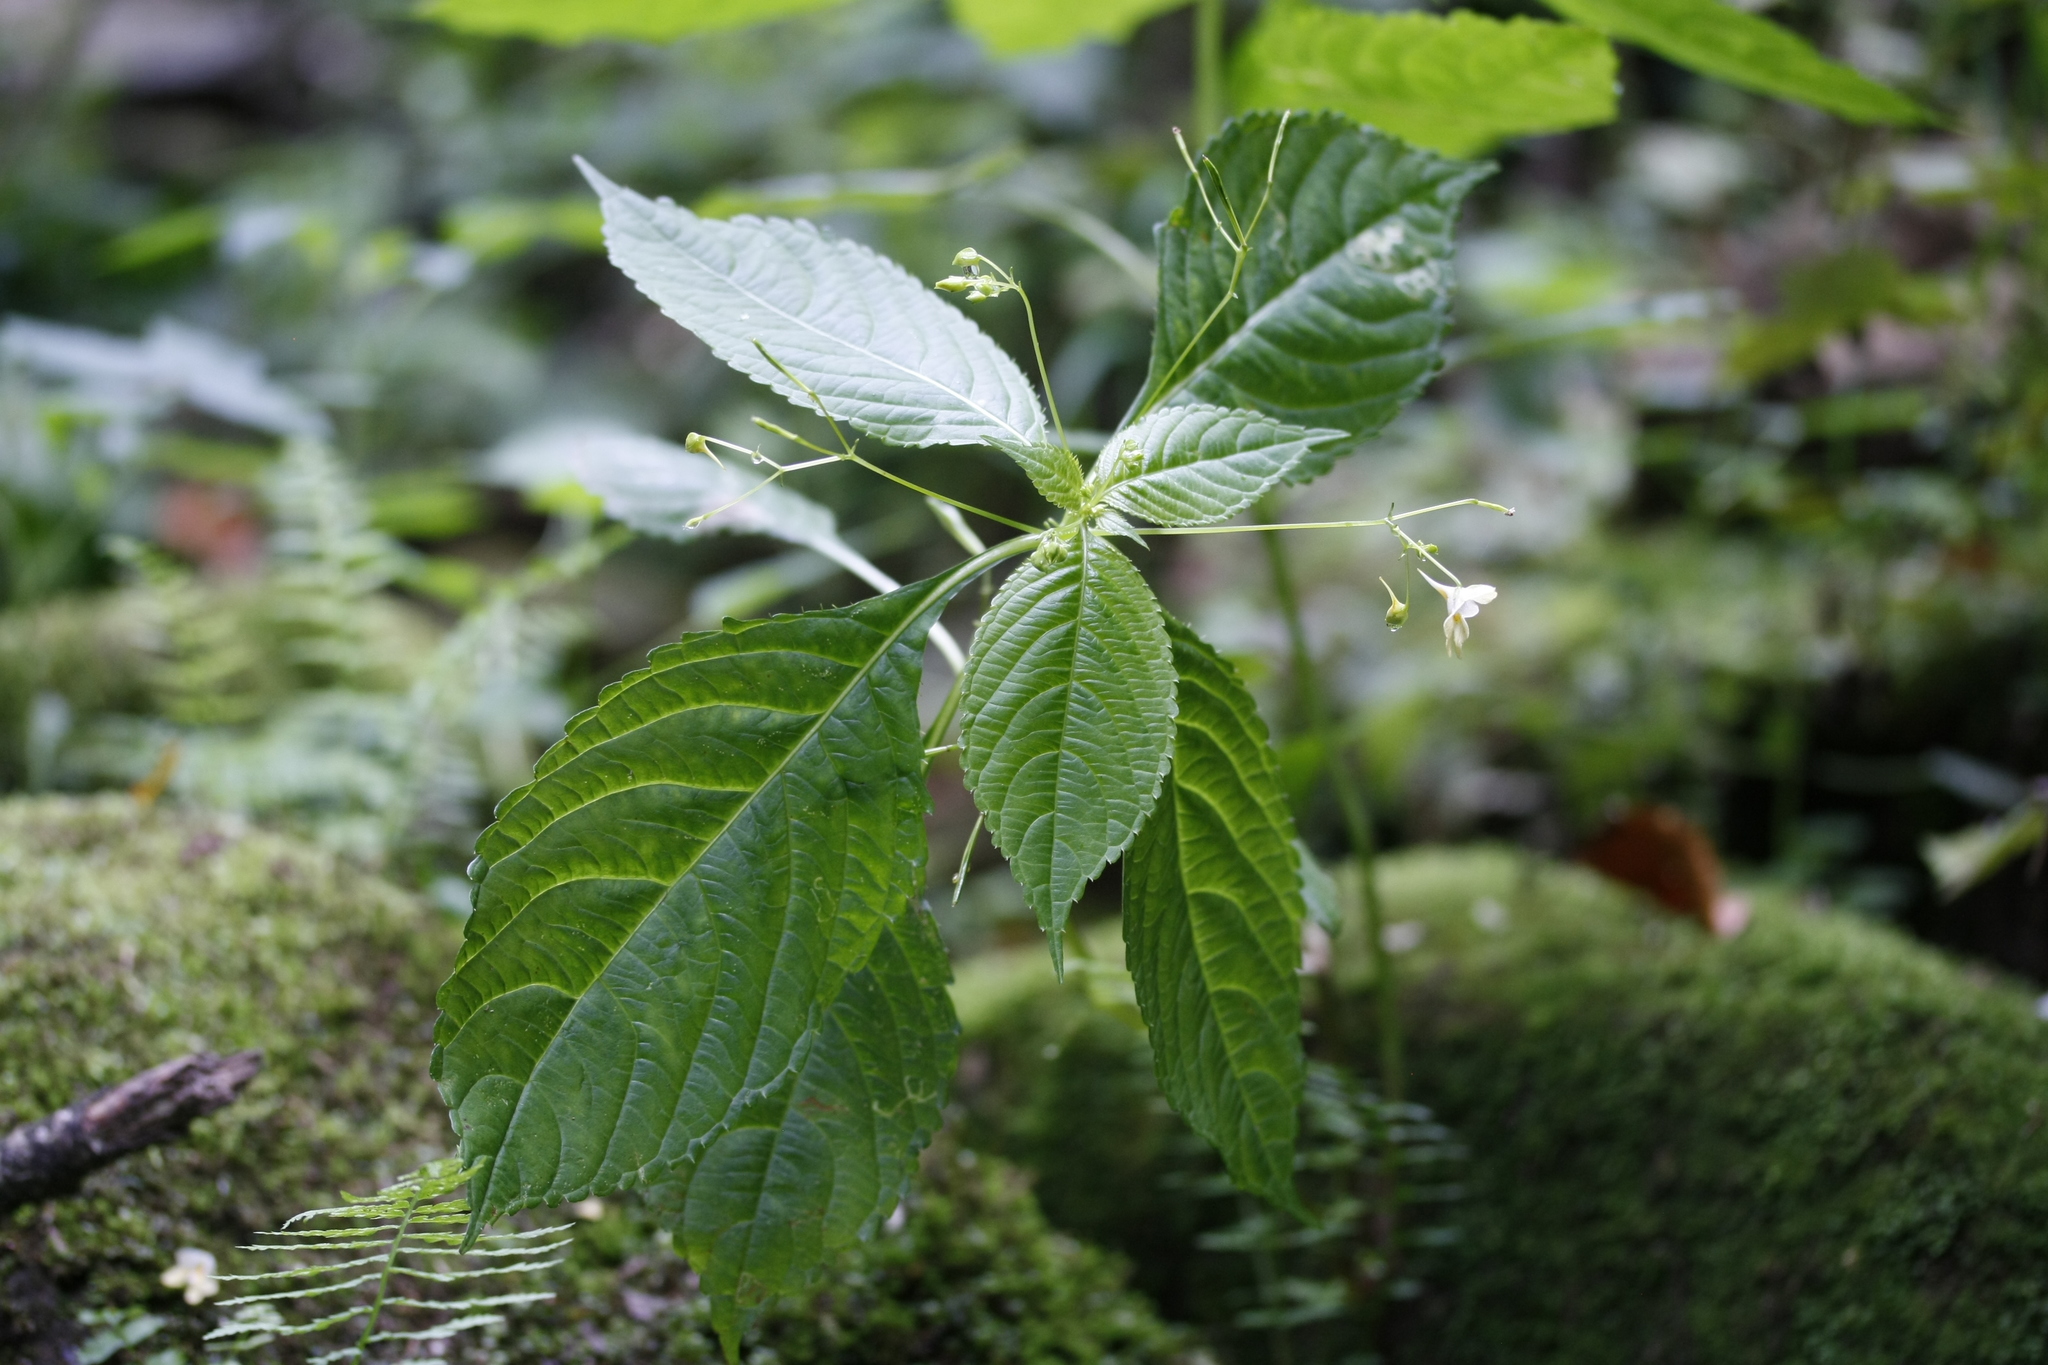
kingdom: Plantae
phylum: Tracheophyta
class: Magnoliopsida
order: Ericales
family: Balsaminaceae
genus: Impatiens
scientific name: Impatiens parviflora
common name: Small balsam
